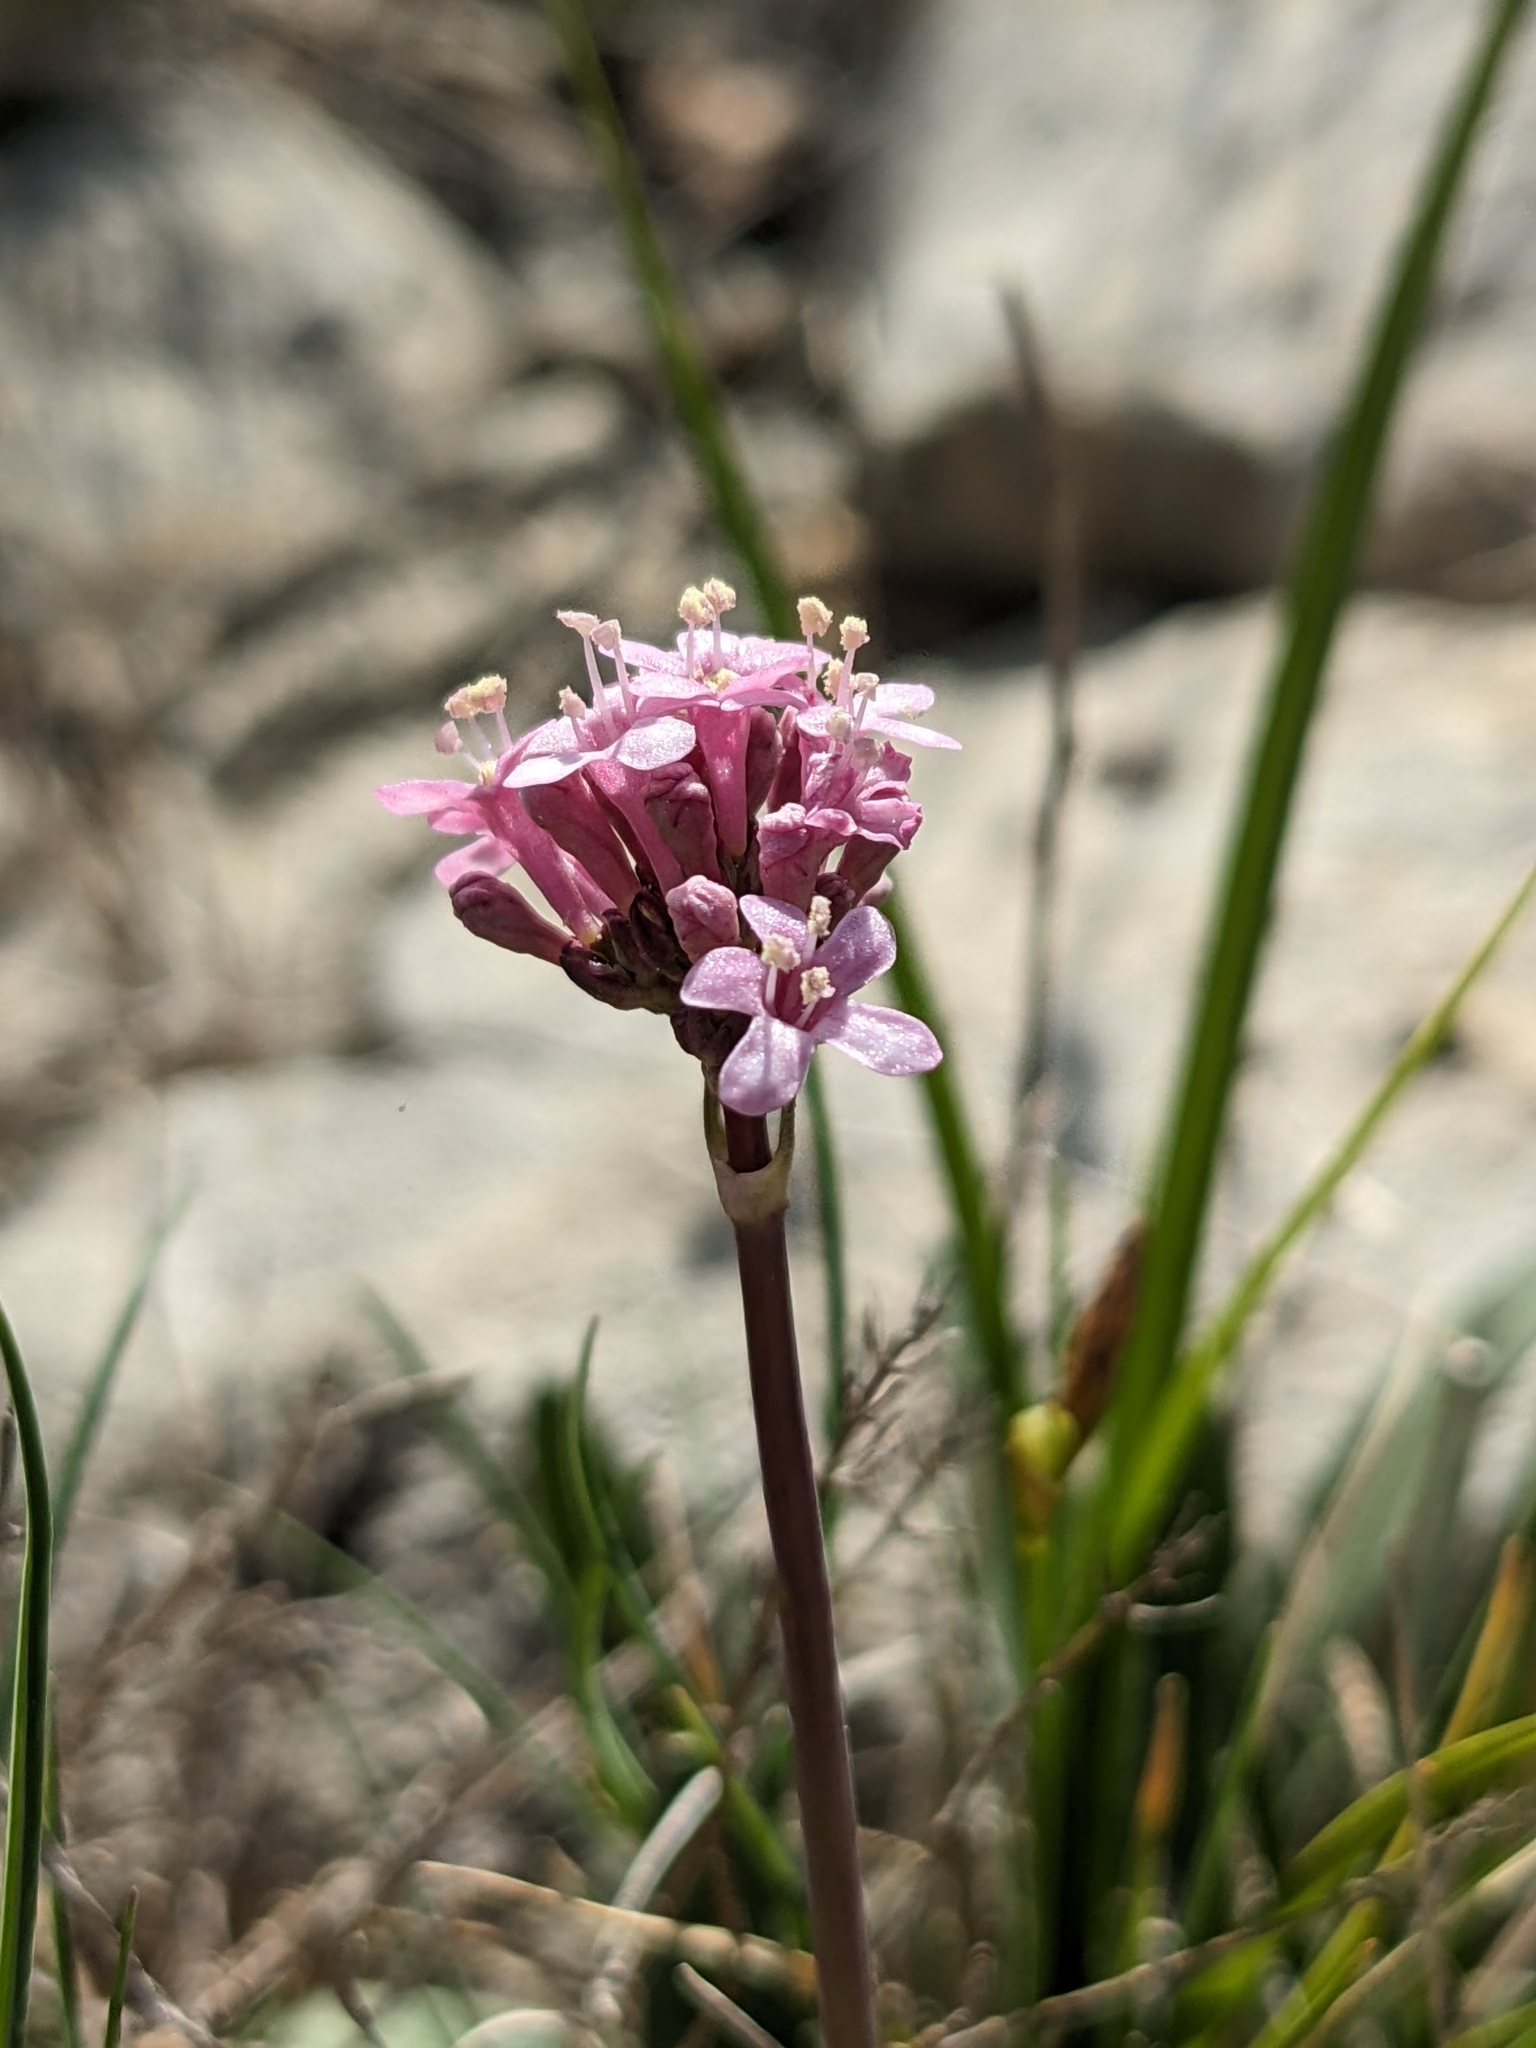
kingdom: Plantae
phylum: Tracheophyta
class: Magnoliopsida
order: Dipsacales
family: Caprifoliaceae
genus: Valeriana
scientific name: Valeriana tuberosa
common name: Tuberous valerian
